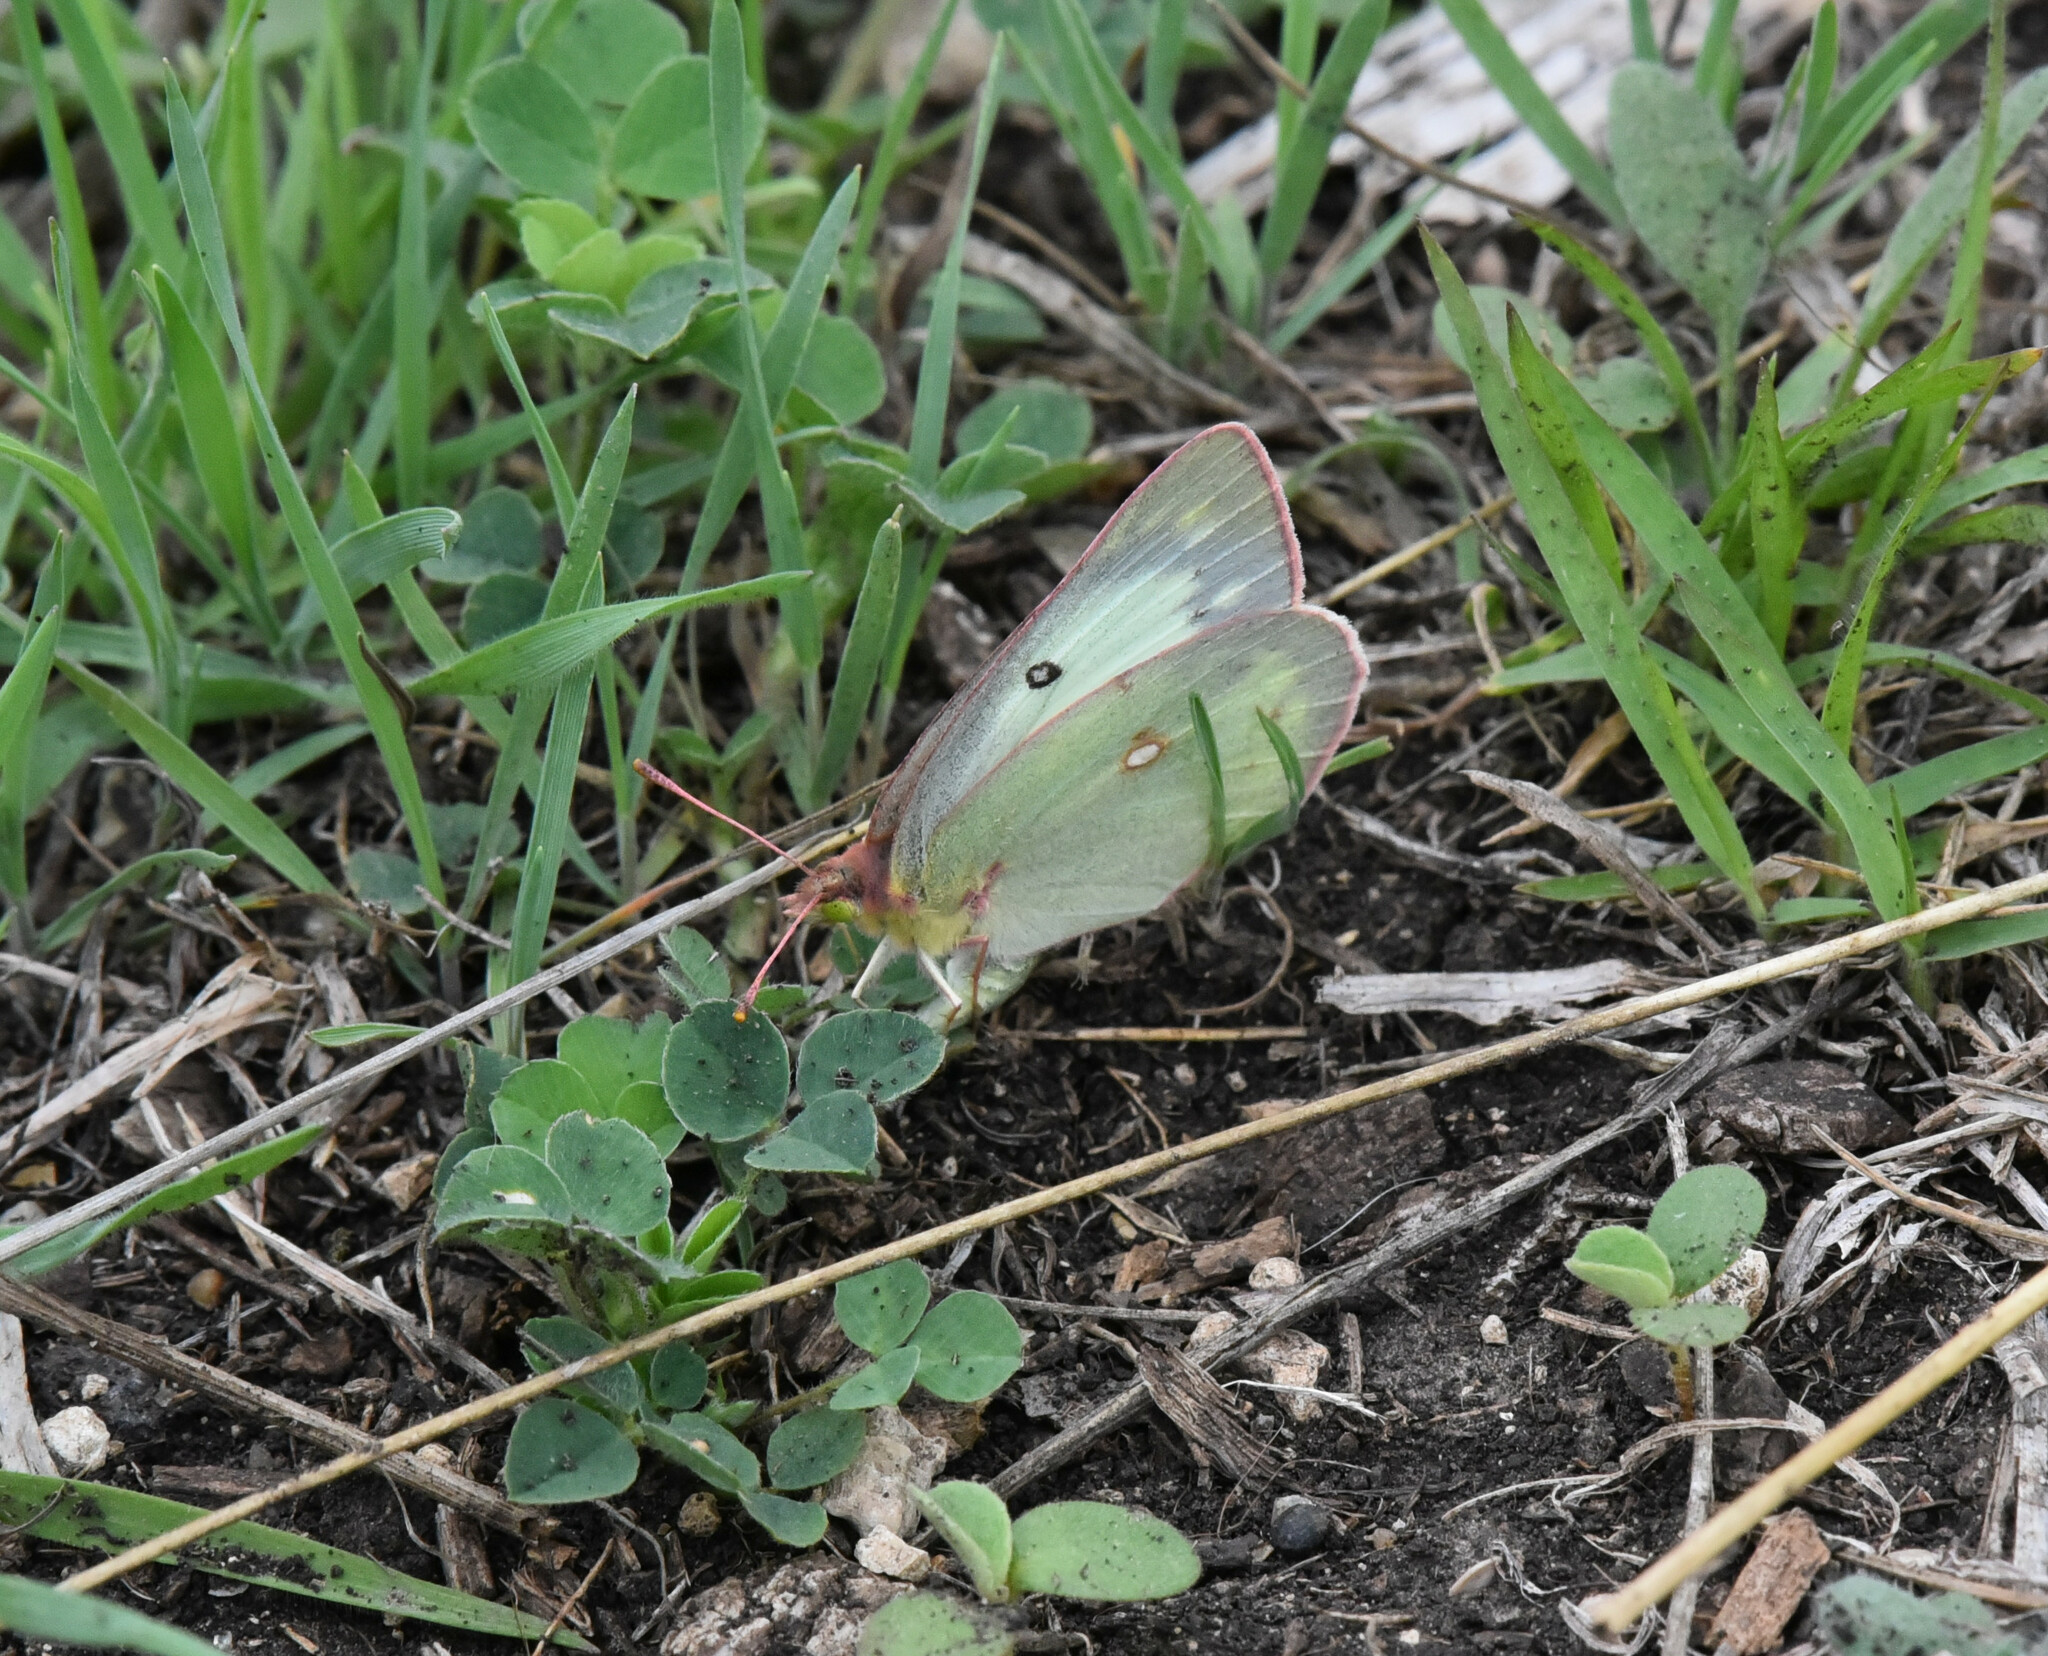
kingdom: Animalia
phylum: Arthropoda
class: Insecta
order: Lepidoptera
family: Pieridae
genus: Colias
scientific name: Colias eurytheme
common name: Alfalfa butterfly
